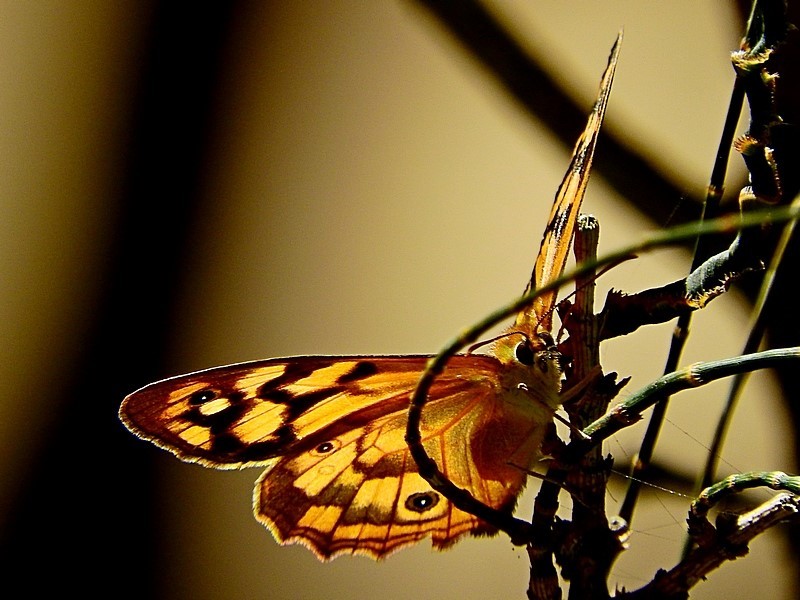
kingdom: Animalia
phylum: Arthropoda
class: Insecta
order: Lepidoptera
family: Nymphalidae
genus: Heteronympha
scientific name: Heteronympha paradelpha
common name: Spotted brown
